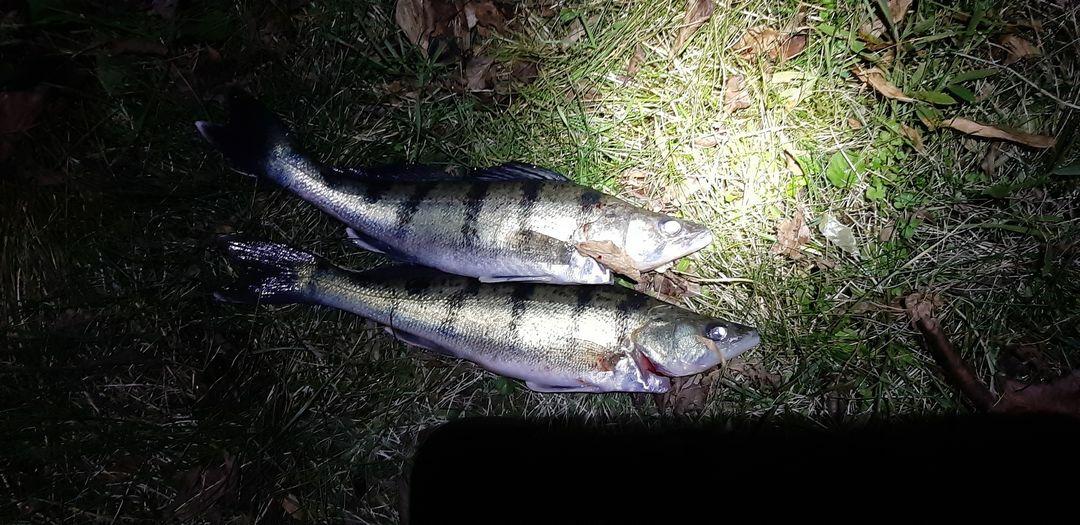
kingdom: Animalia
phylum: Chordata
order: Perciformes
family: Percidae
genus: Sander
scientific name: Sander volgensis
